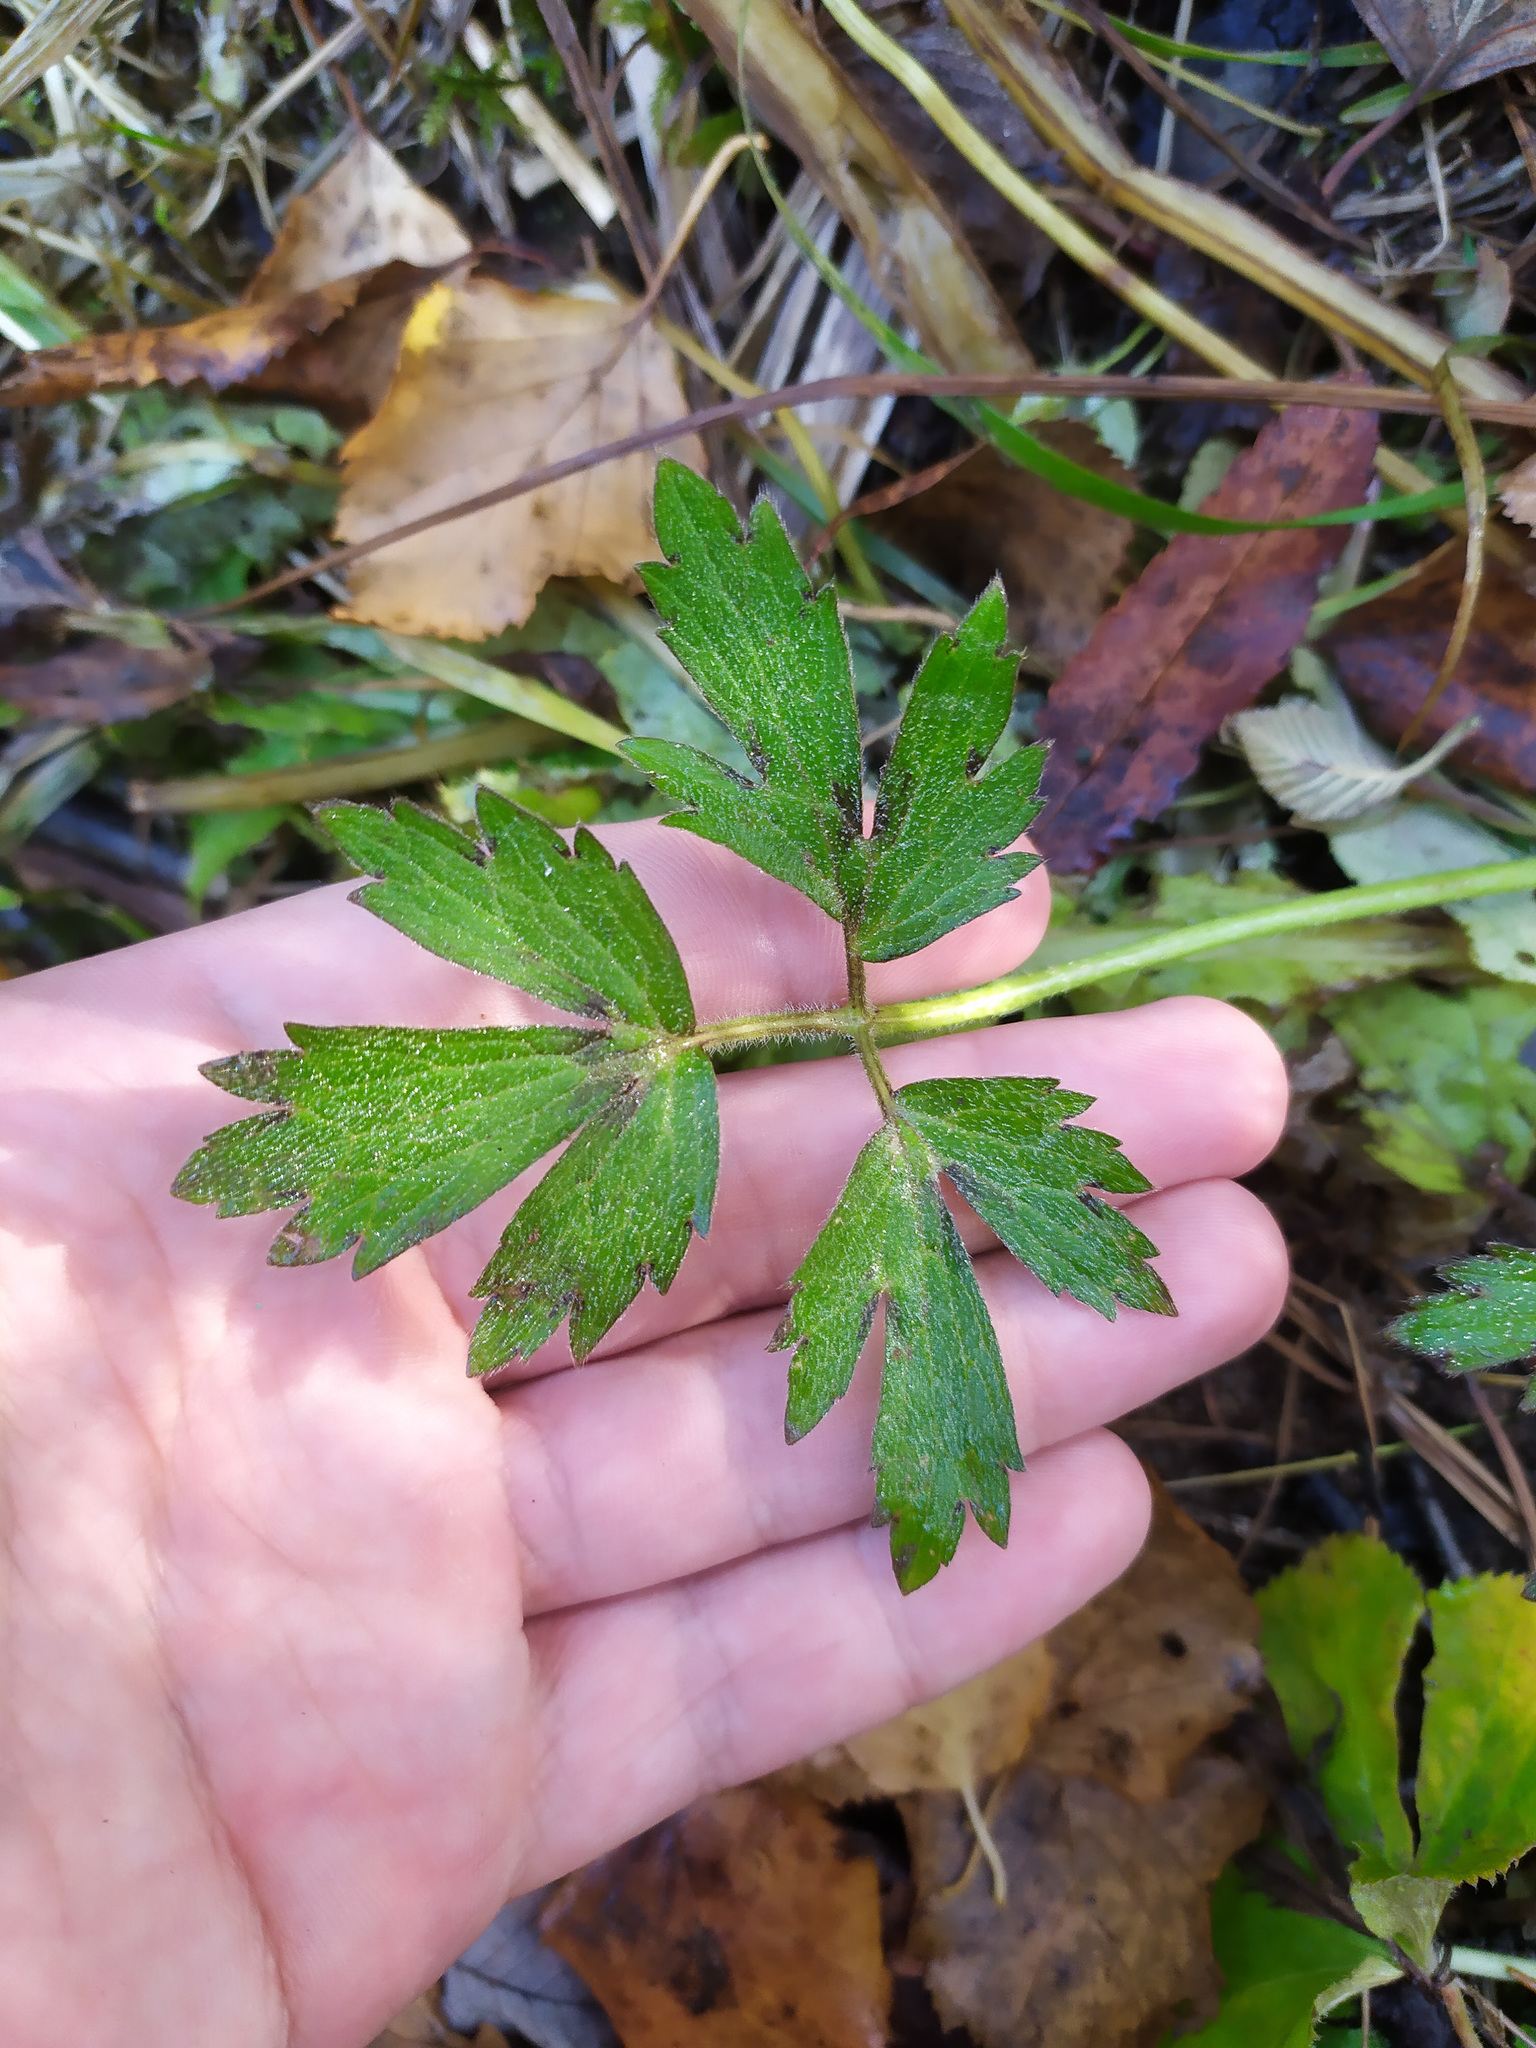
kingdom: Plantae
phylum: Tracheophyta
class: Magnoliopsida
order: Ranunculales
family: Ranunculaceae
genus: Ranunculus
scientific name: Ranunculus repens
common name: Creeping buttercup
